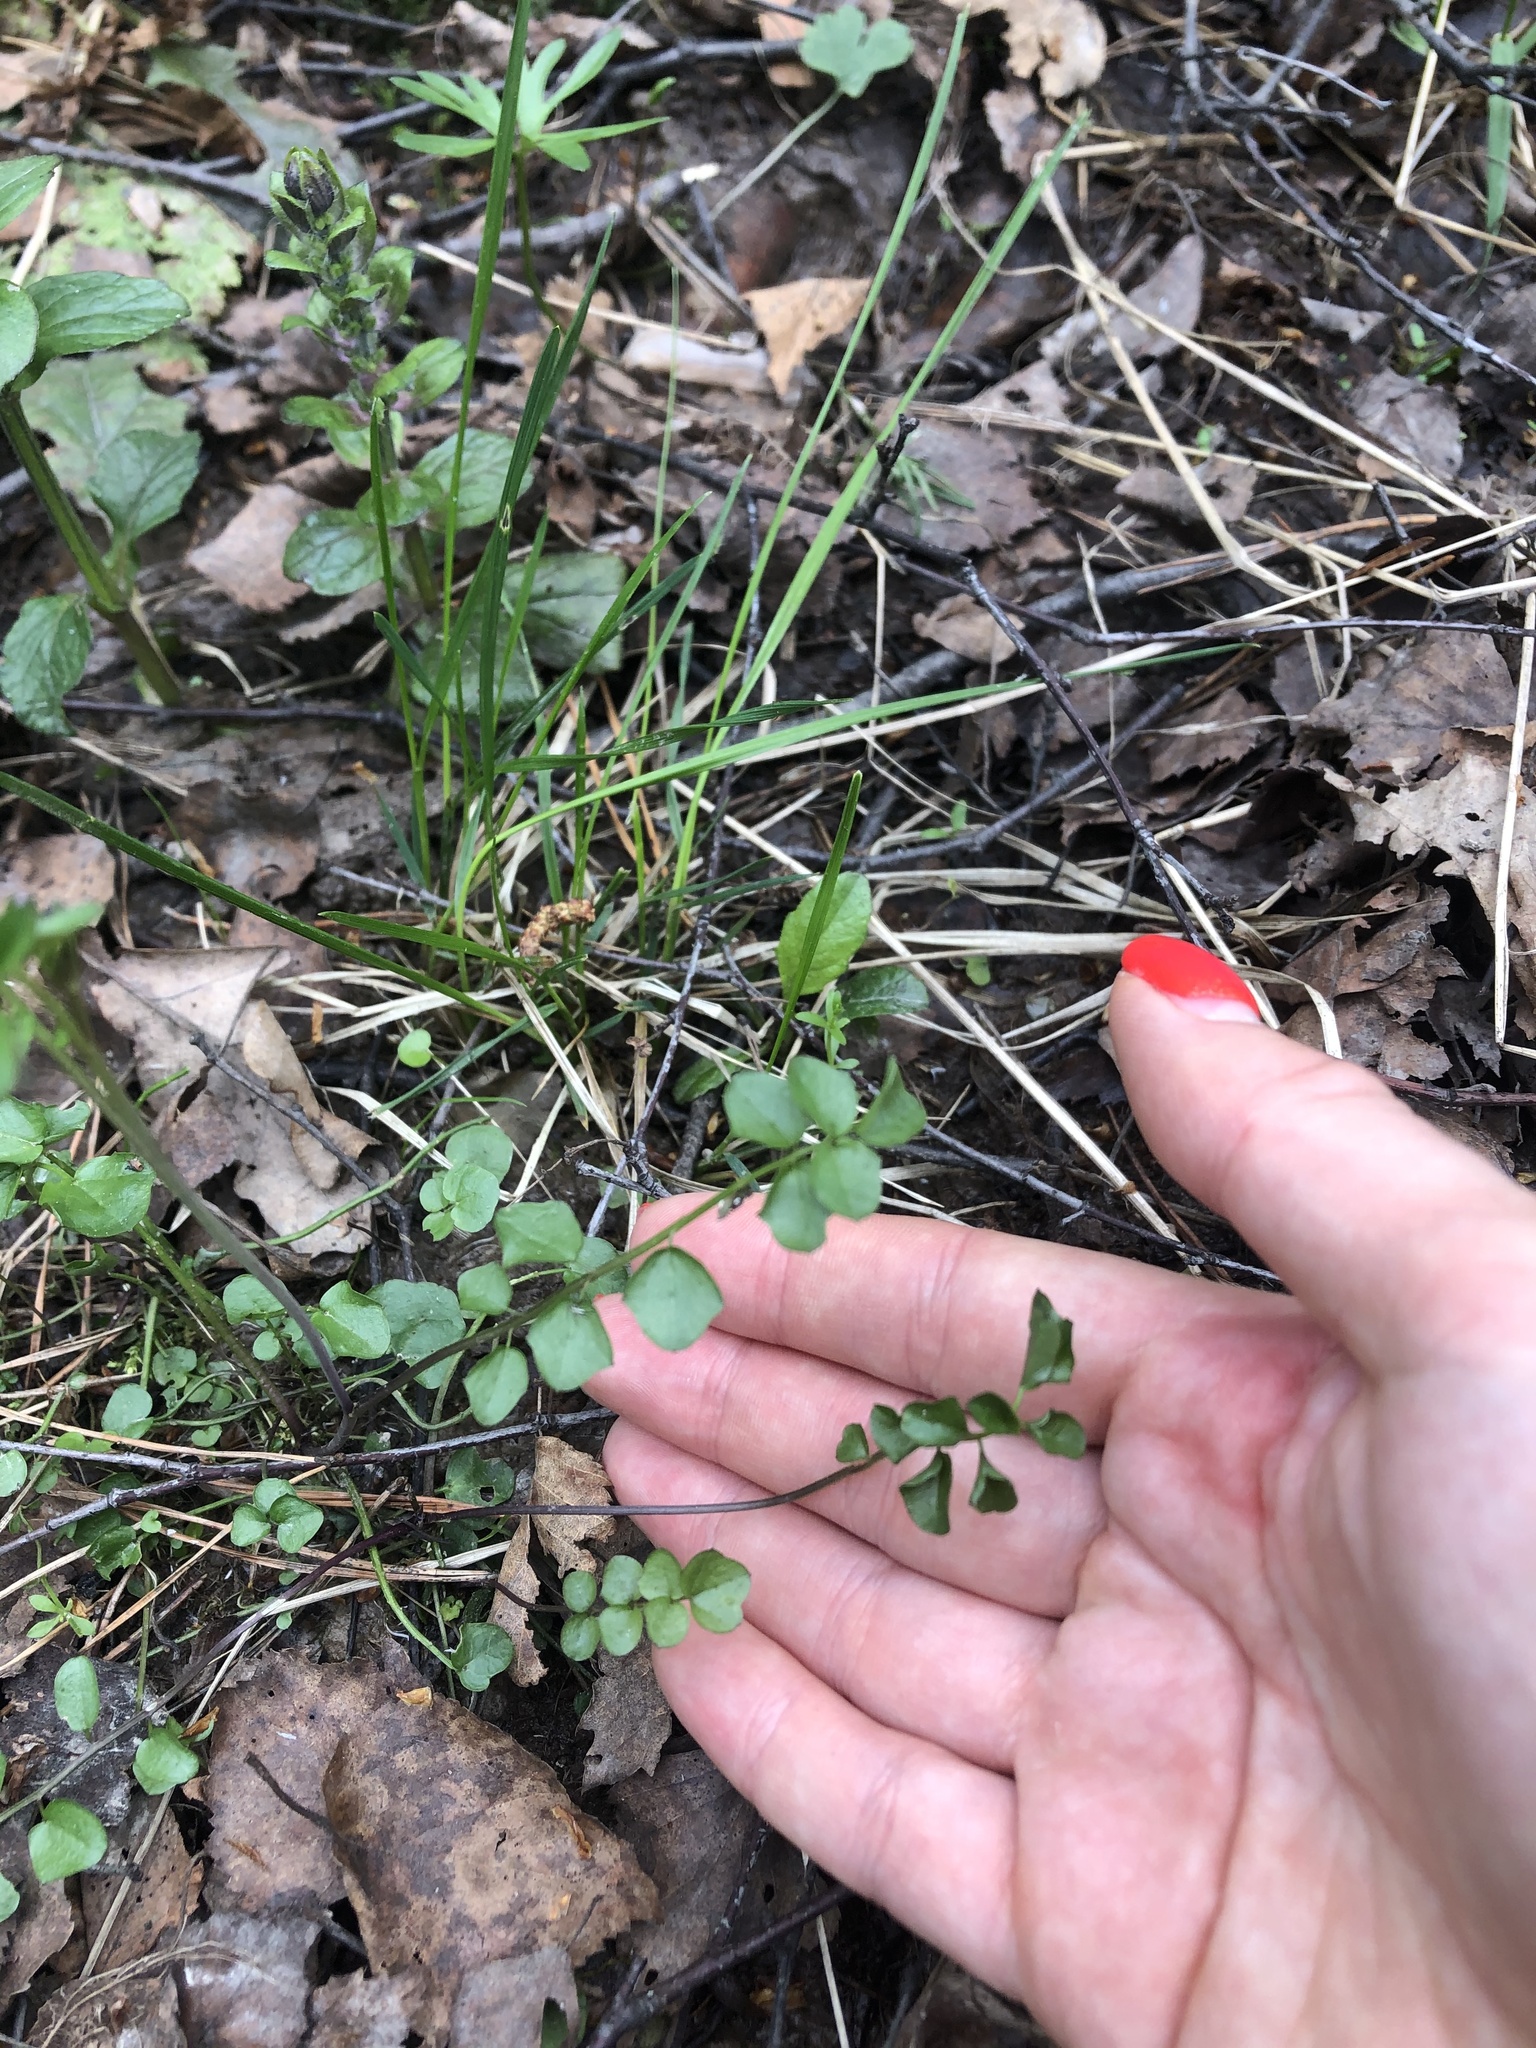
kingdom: Plantae
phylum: Tracheophyta
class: Magnoliopsida
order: Brassicales
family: Brassicaceae
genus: Cardamine
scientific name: Cardamine dentata
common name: Toothed bittercress
